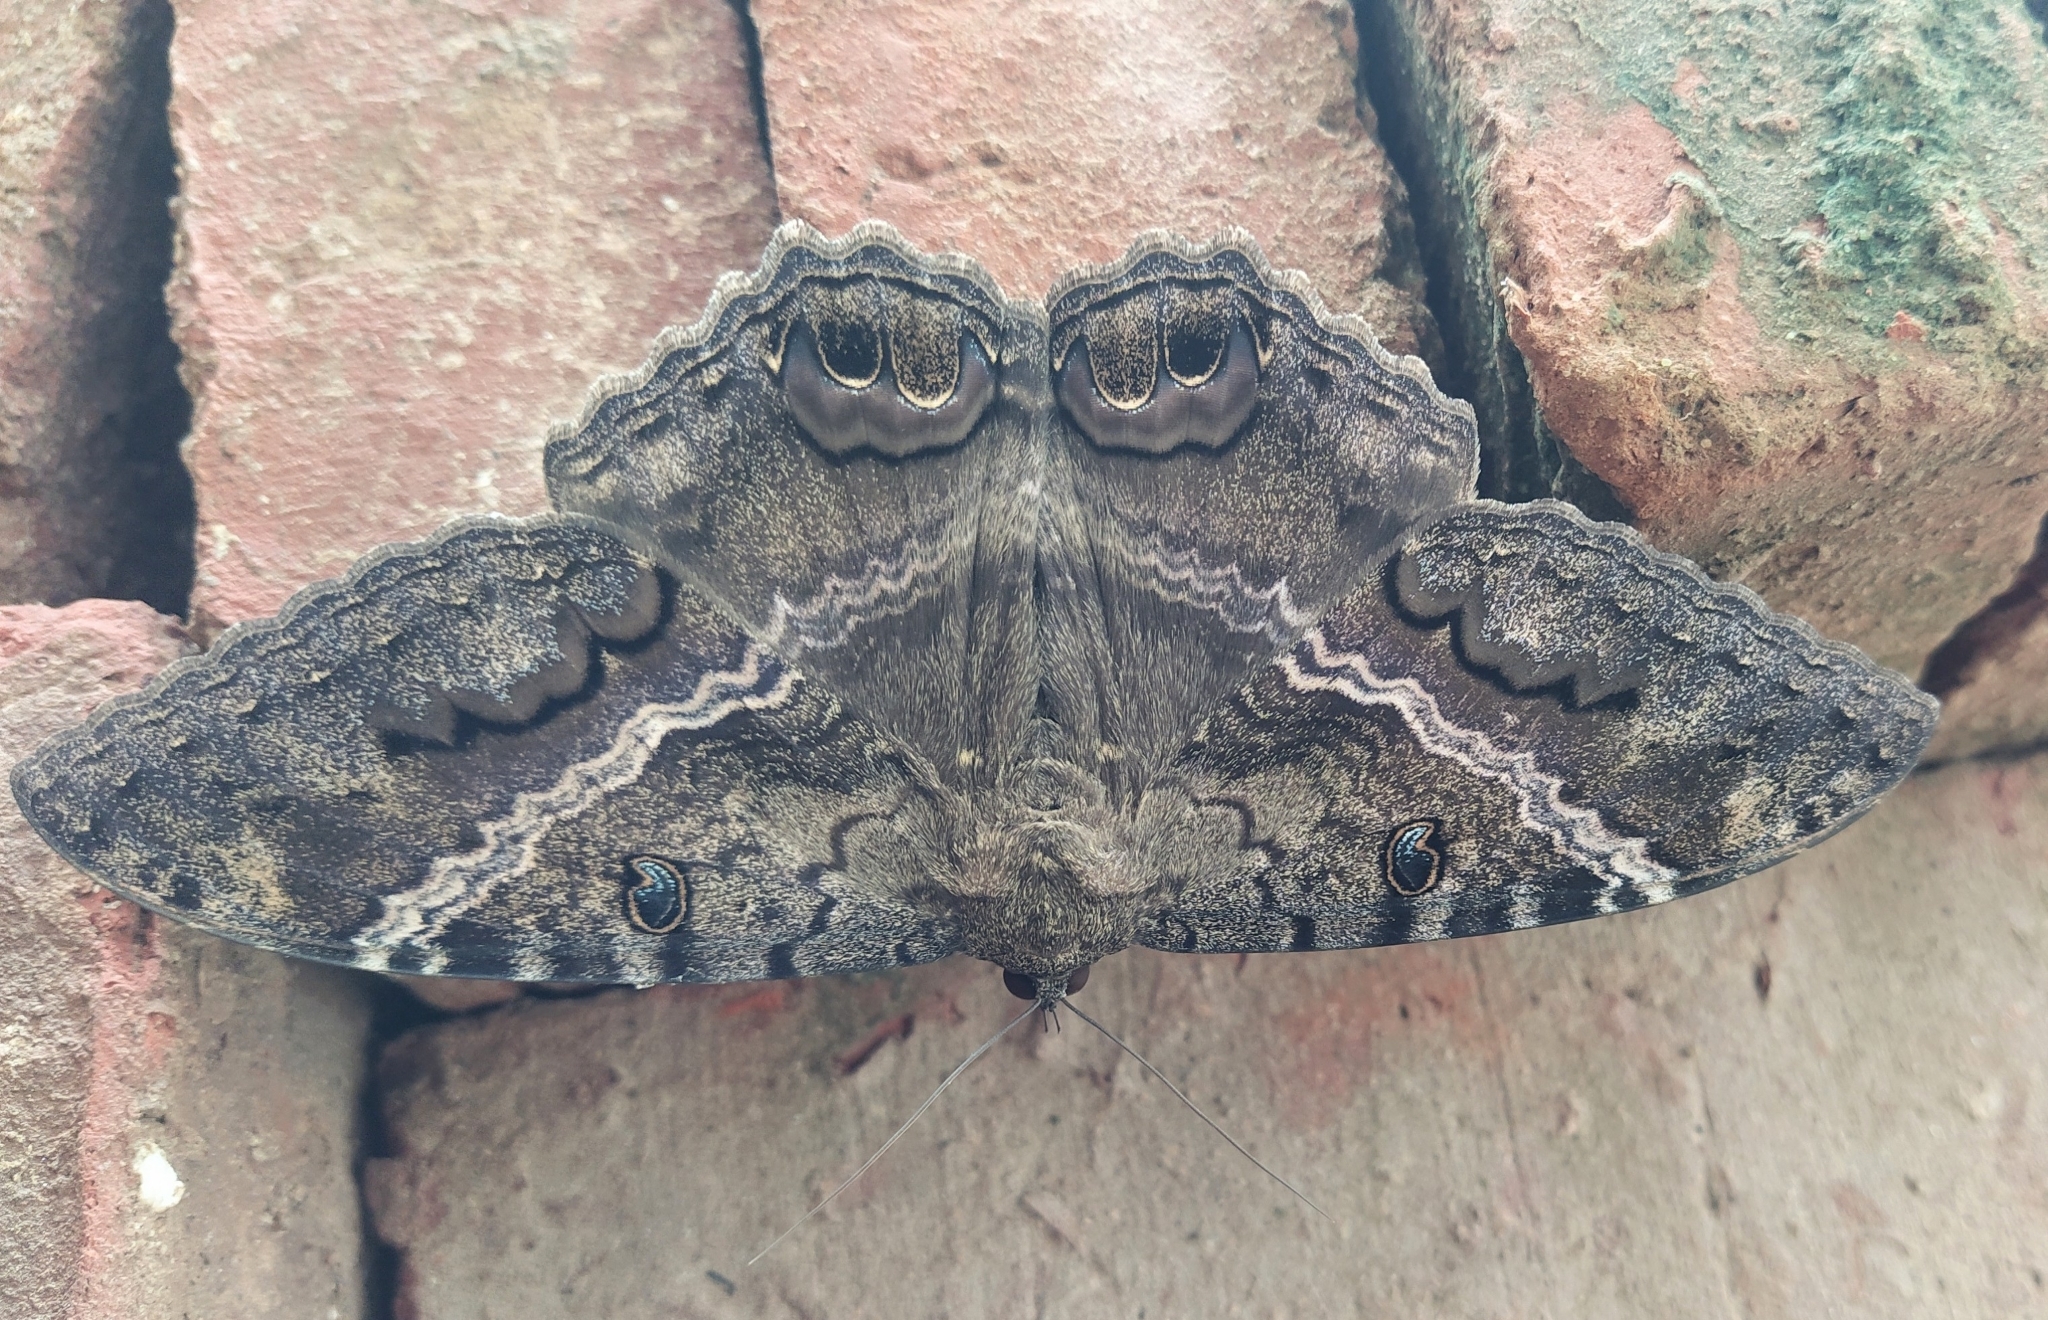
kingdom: Animalia
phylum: Arthropoda
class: Insecta
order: Lepidoptera
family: Erebidae
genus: Ascalapha
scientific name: Ascalapha odorata
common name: Black witch
